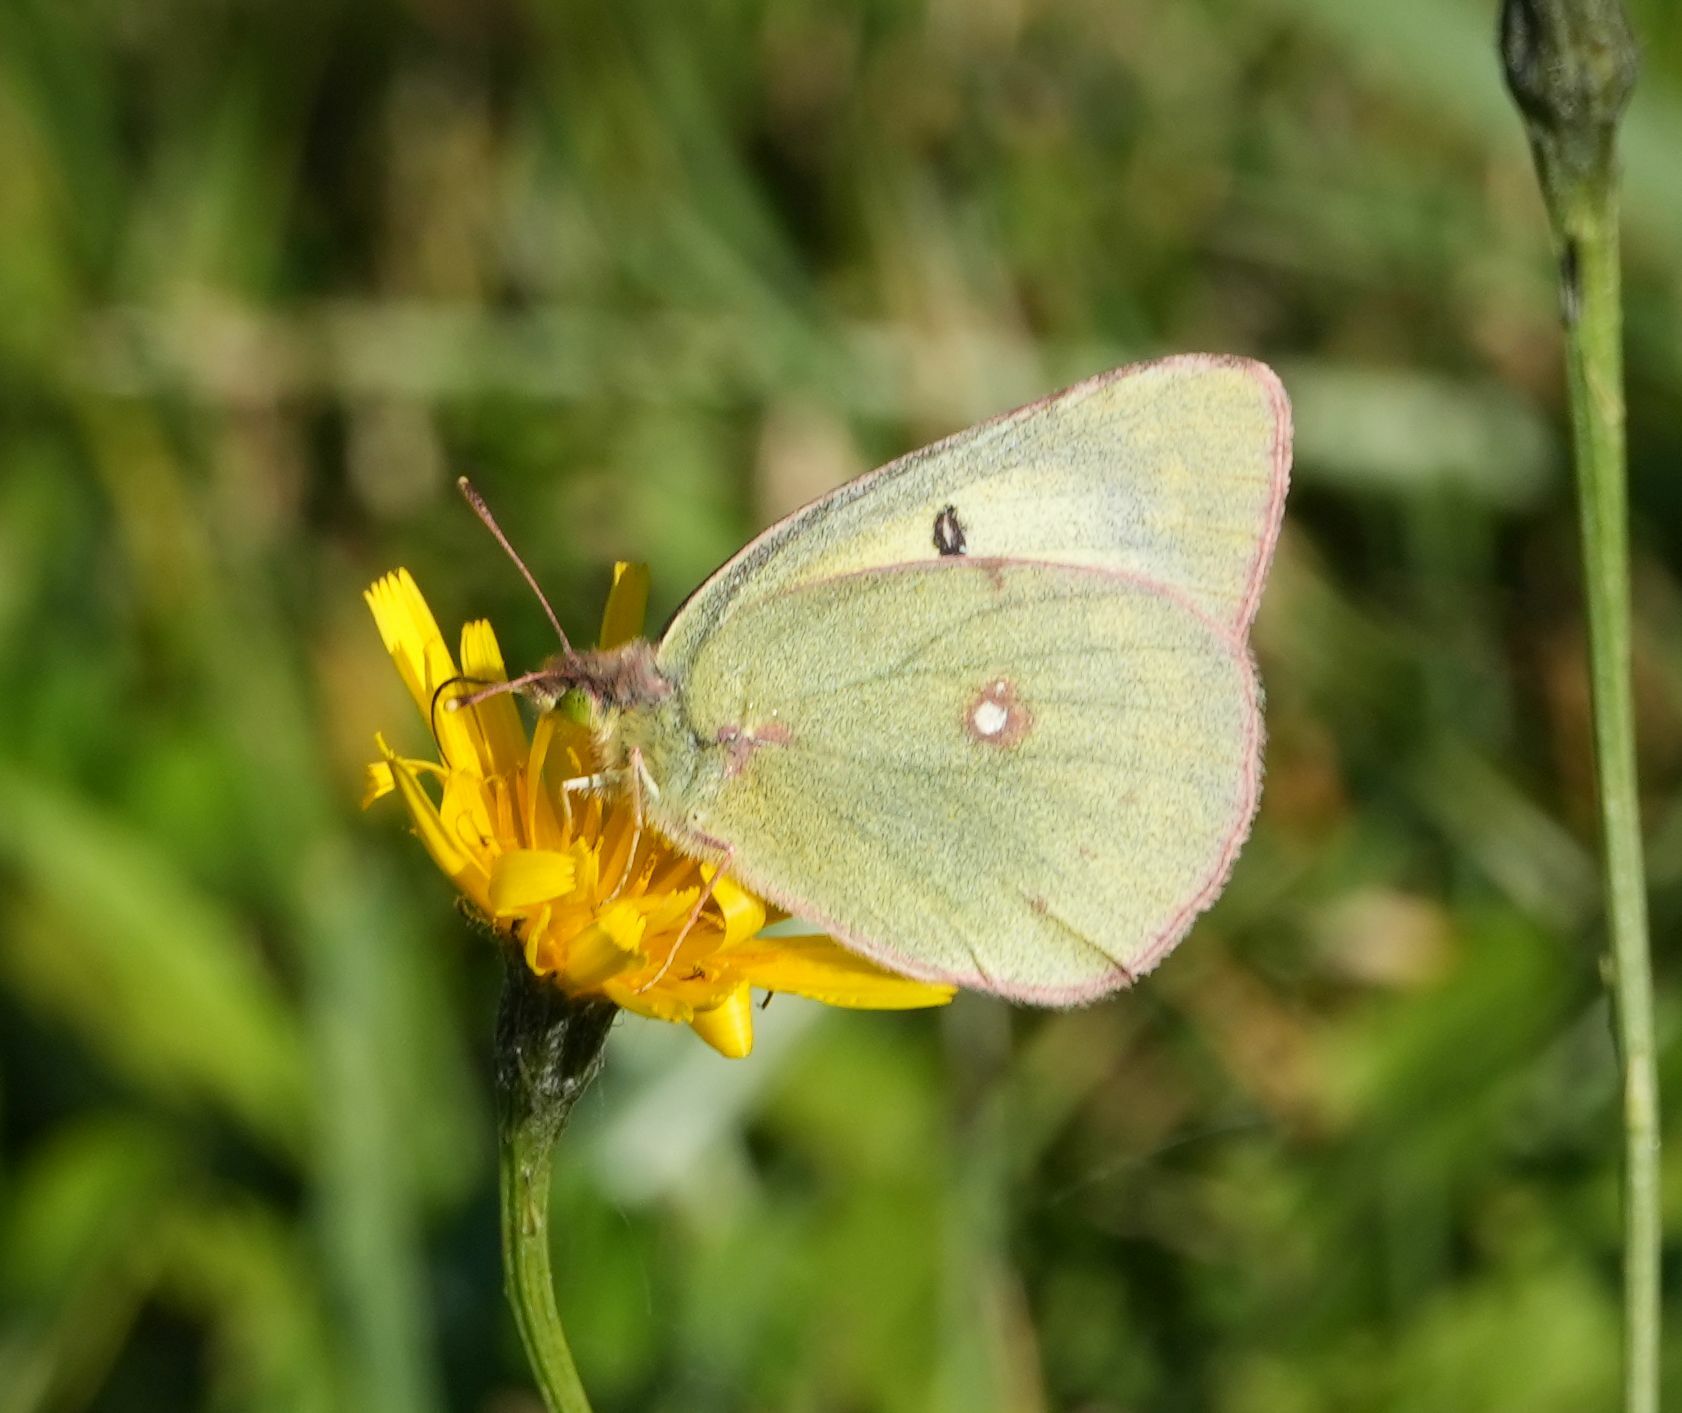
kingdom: Animalia
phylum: Arthropoda
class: Insecta
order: Lepidoptera
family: Pieridae
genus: Colias
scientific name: Colias philodice
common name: Clouded sulphur
